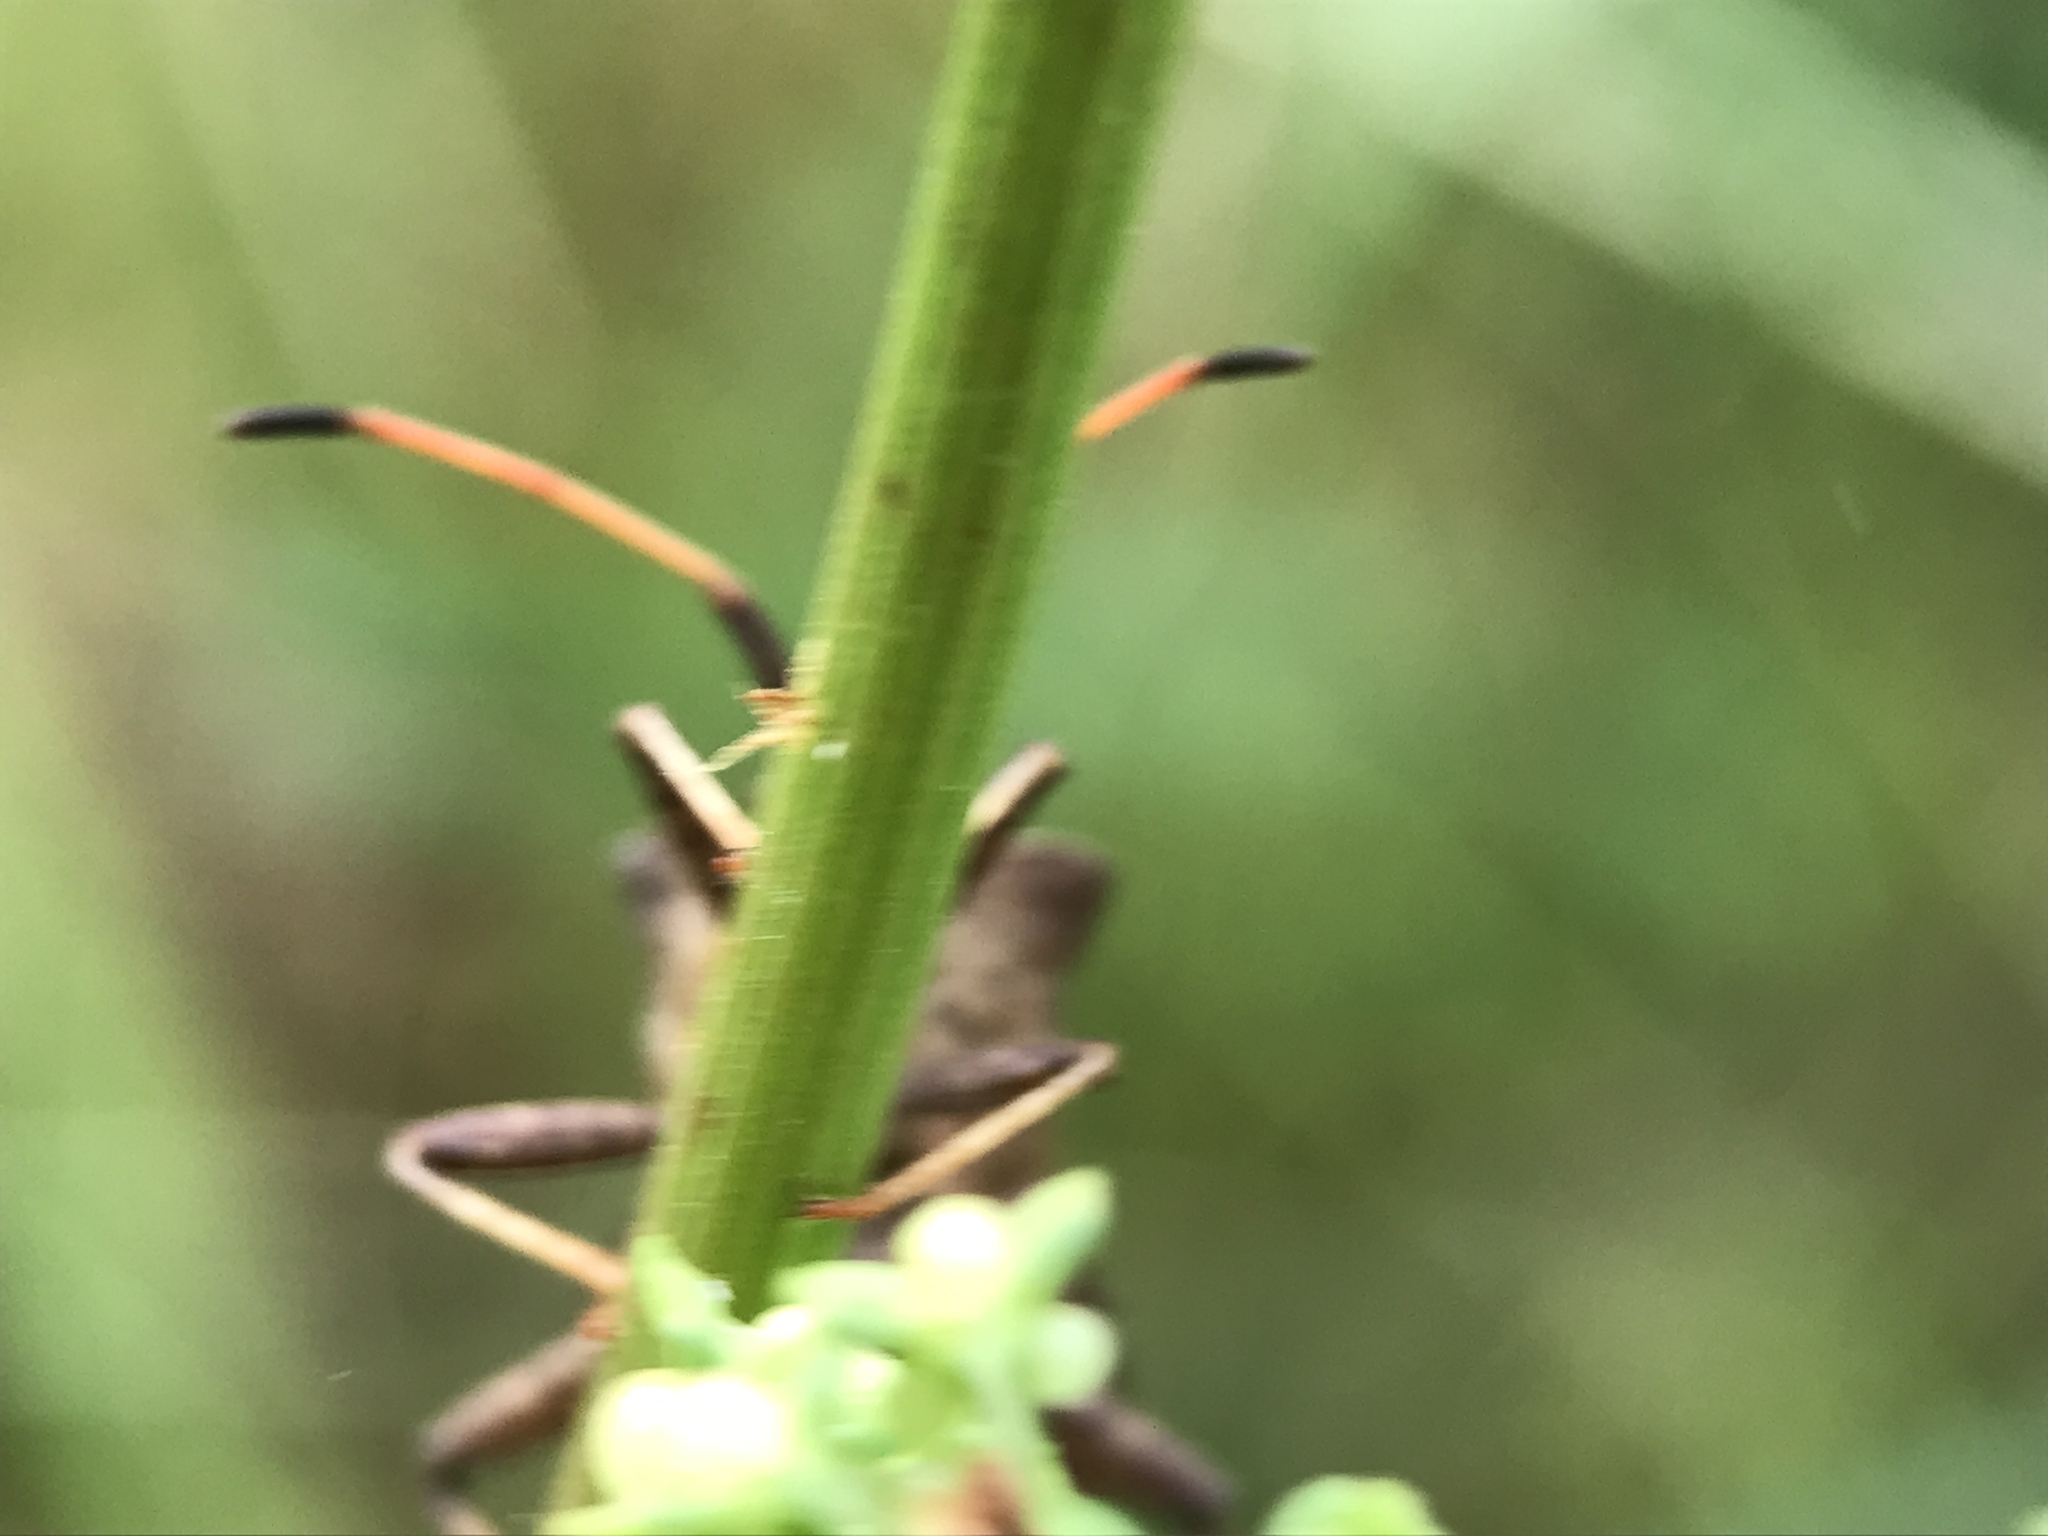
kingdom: Animalia
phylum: Arthropoda
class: Insecta
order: Hemiptera
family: Coreidae
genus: Coreus
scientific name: Coreus marginatus
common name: Dock bug
